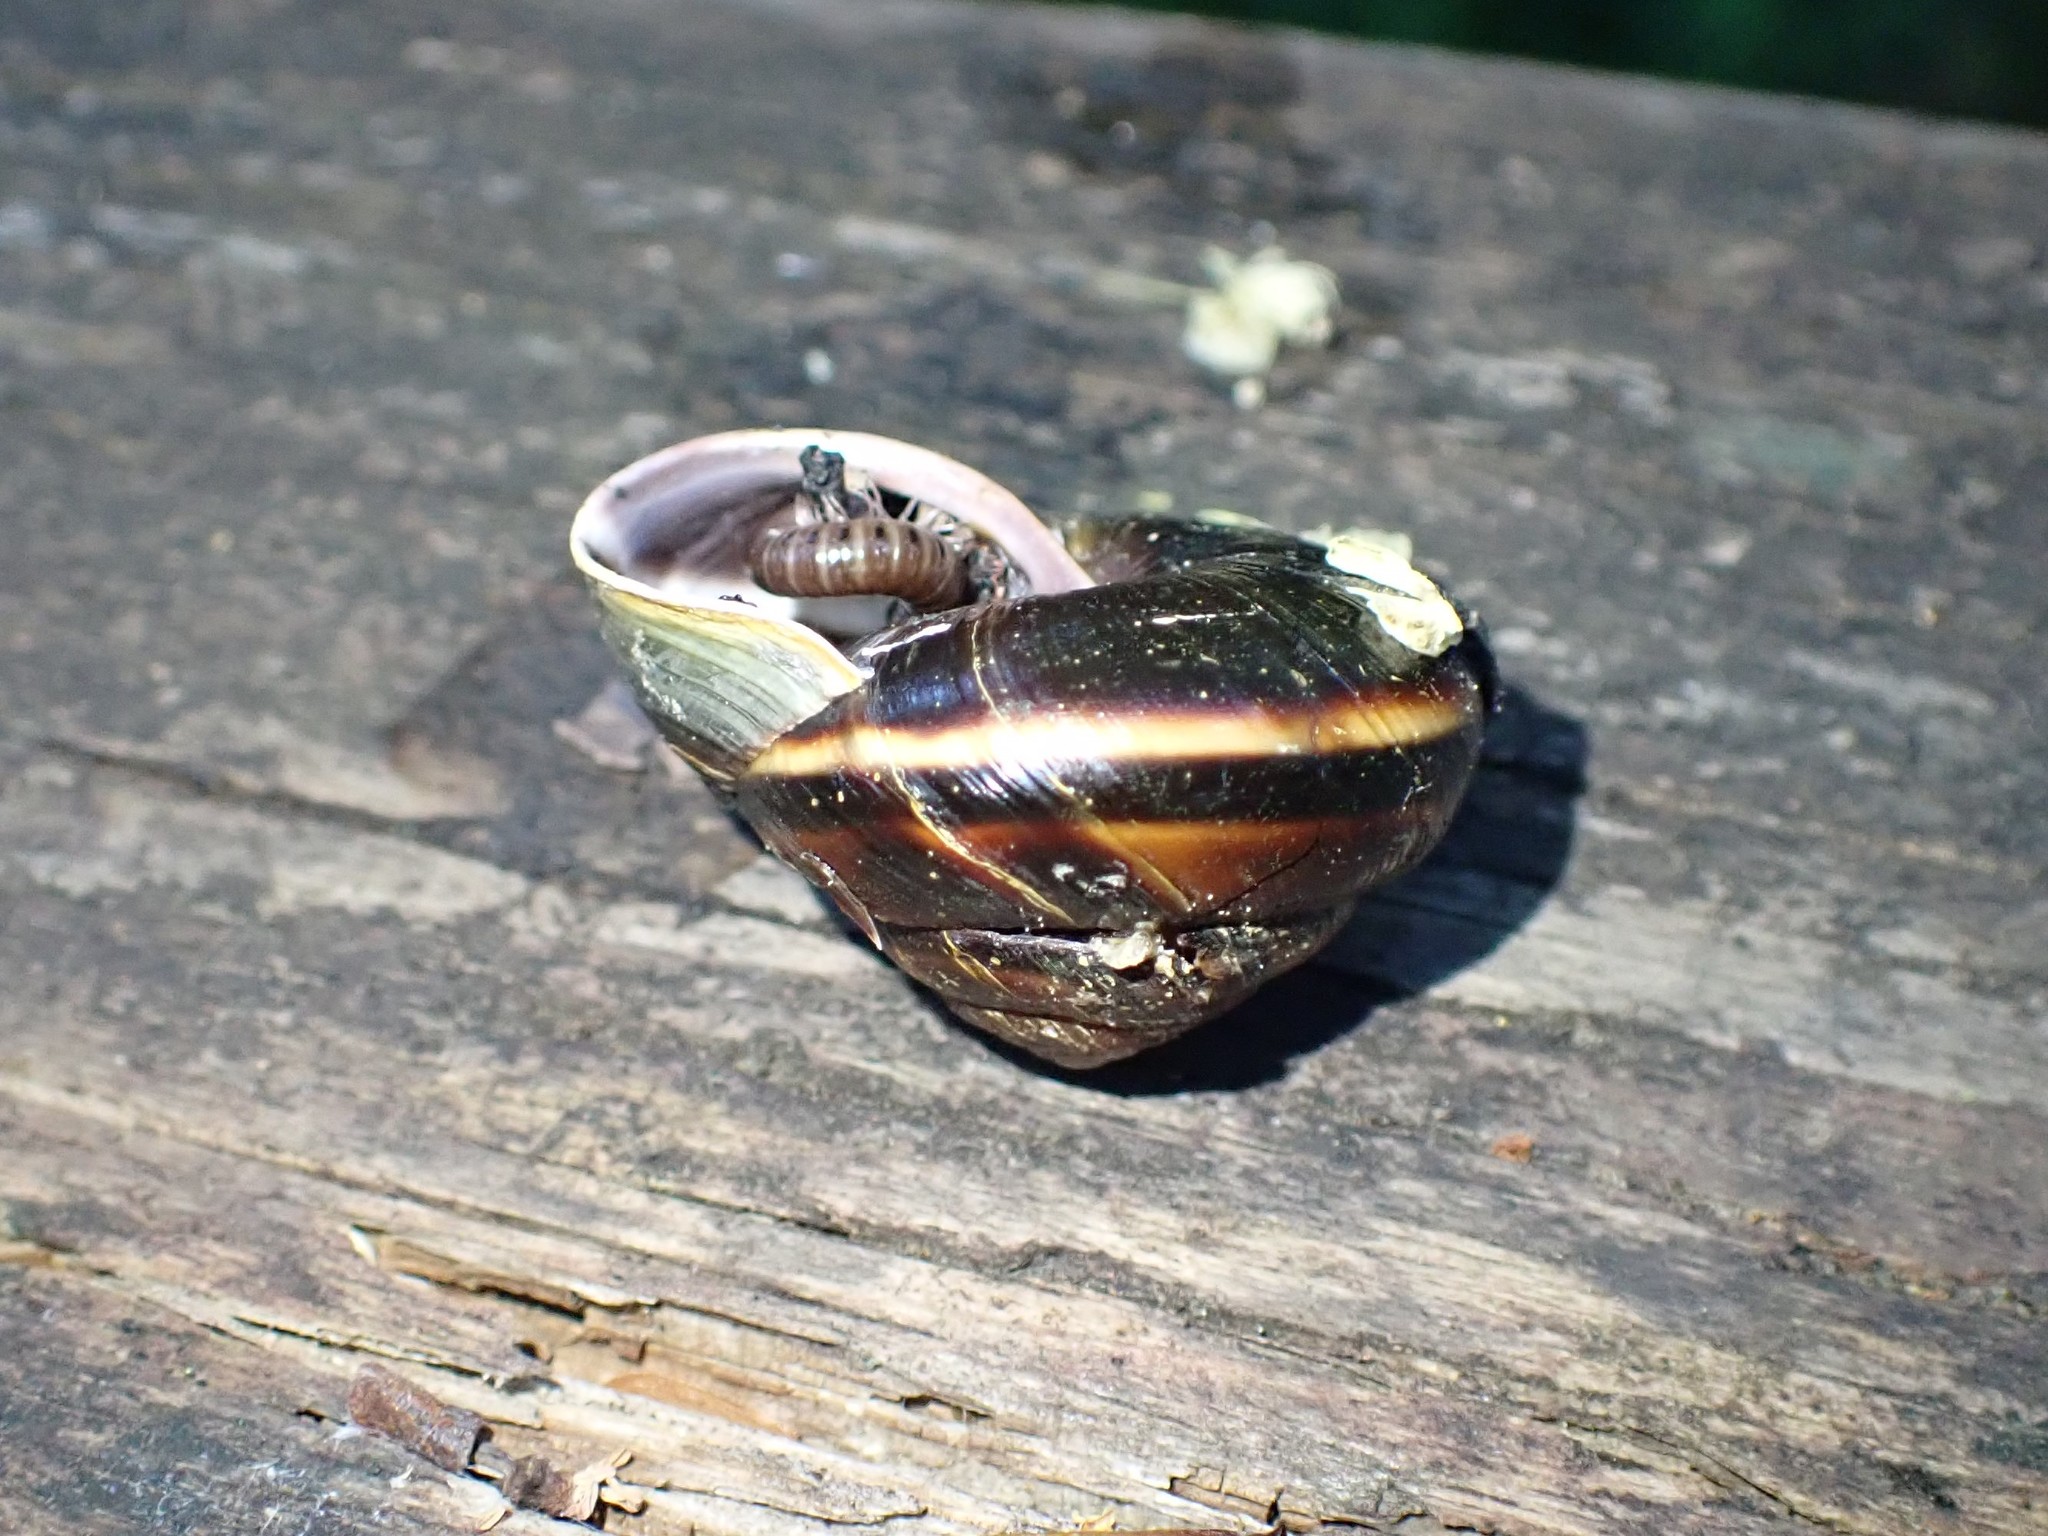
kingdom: Animalia
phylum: Mollusca
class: Gastropoda
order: Stylommatophora
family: Xanthonychidae
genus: Monadenia
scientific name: Monadenia fidelis
